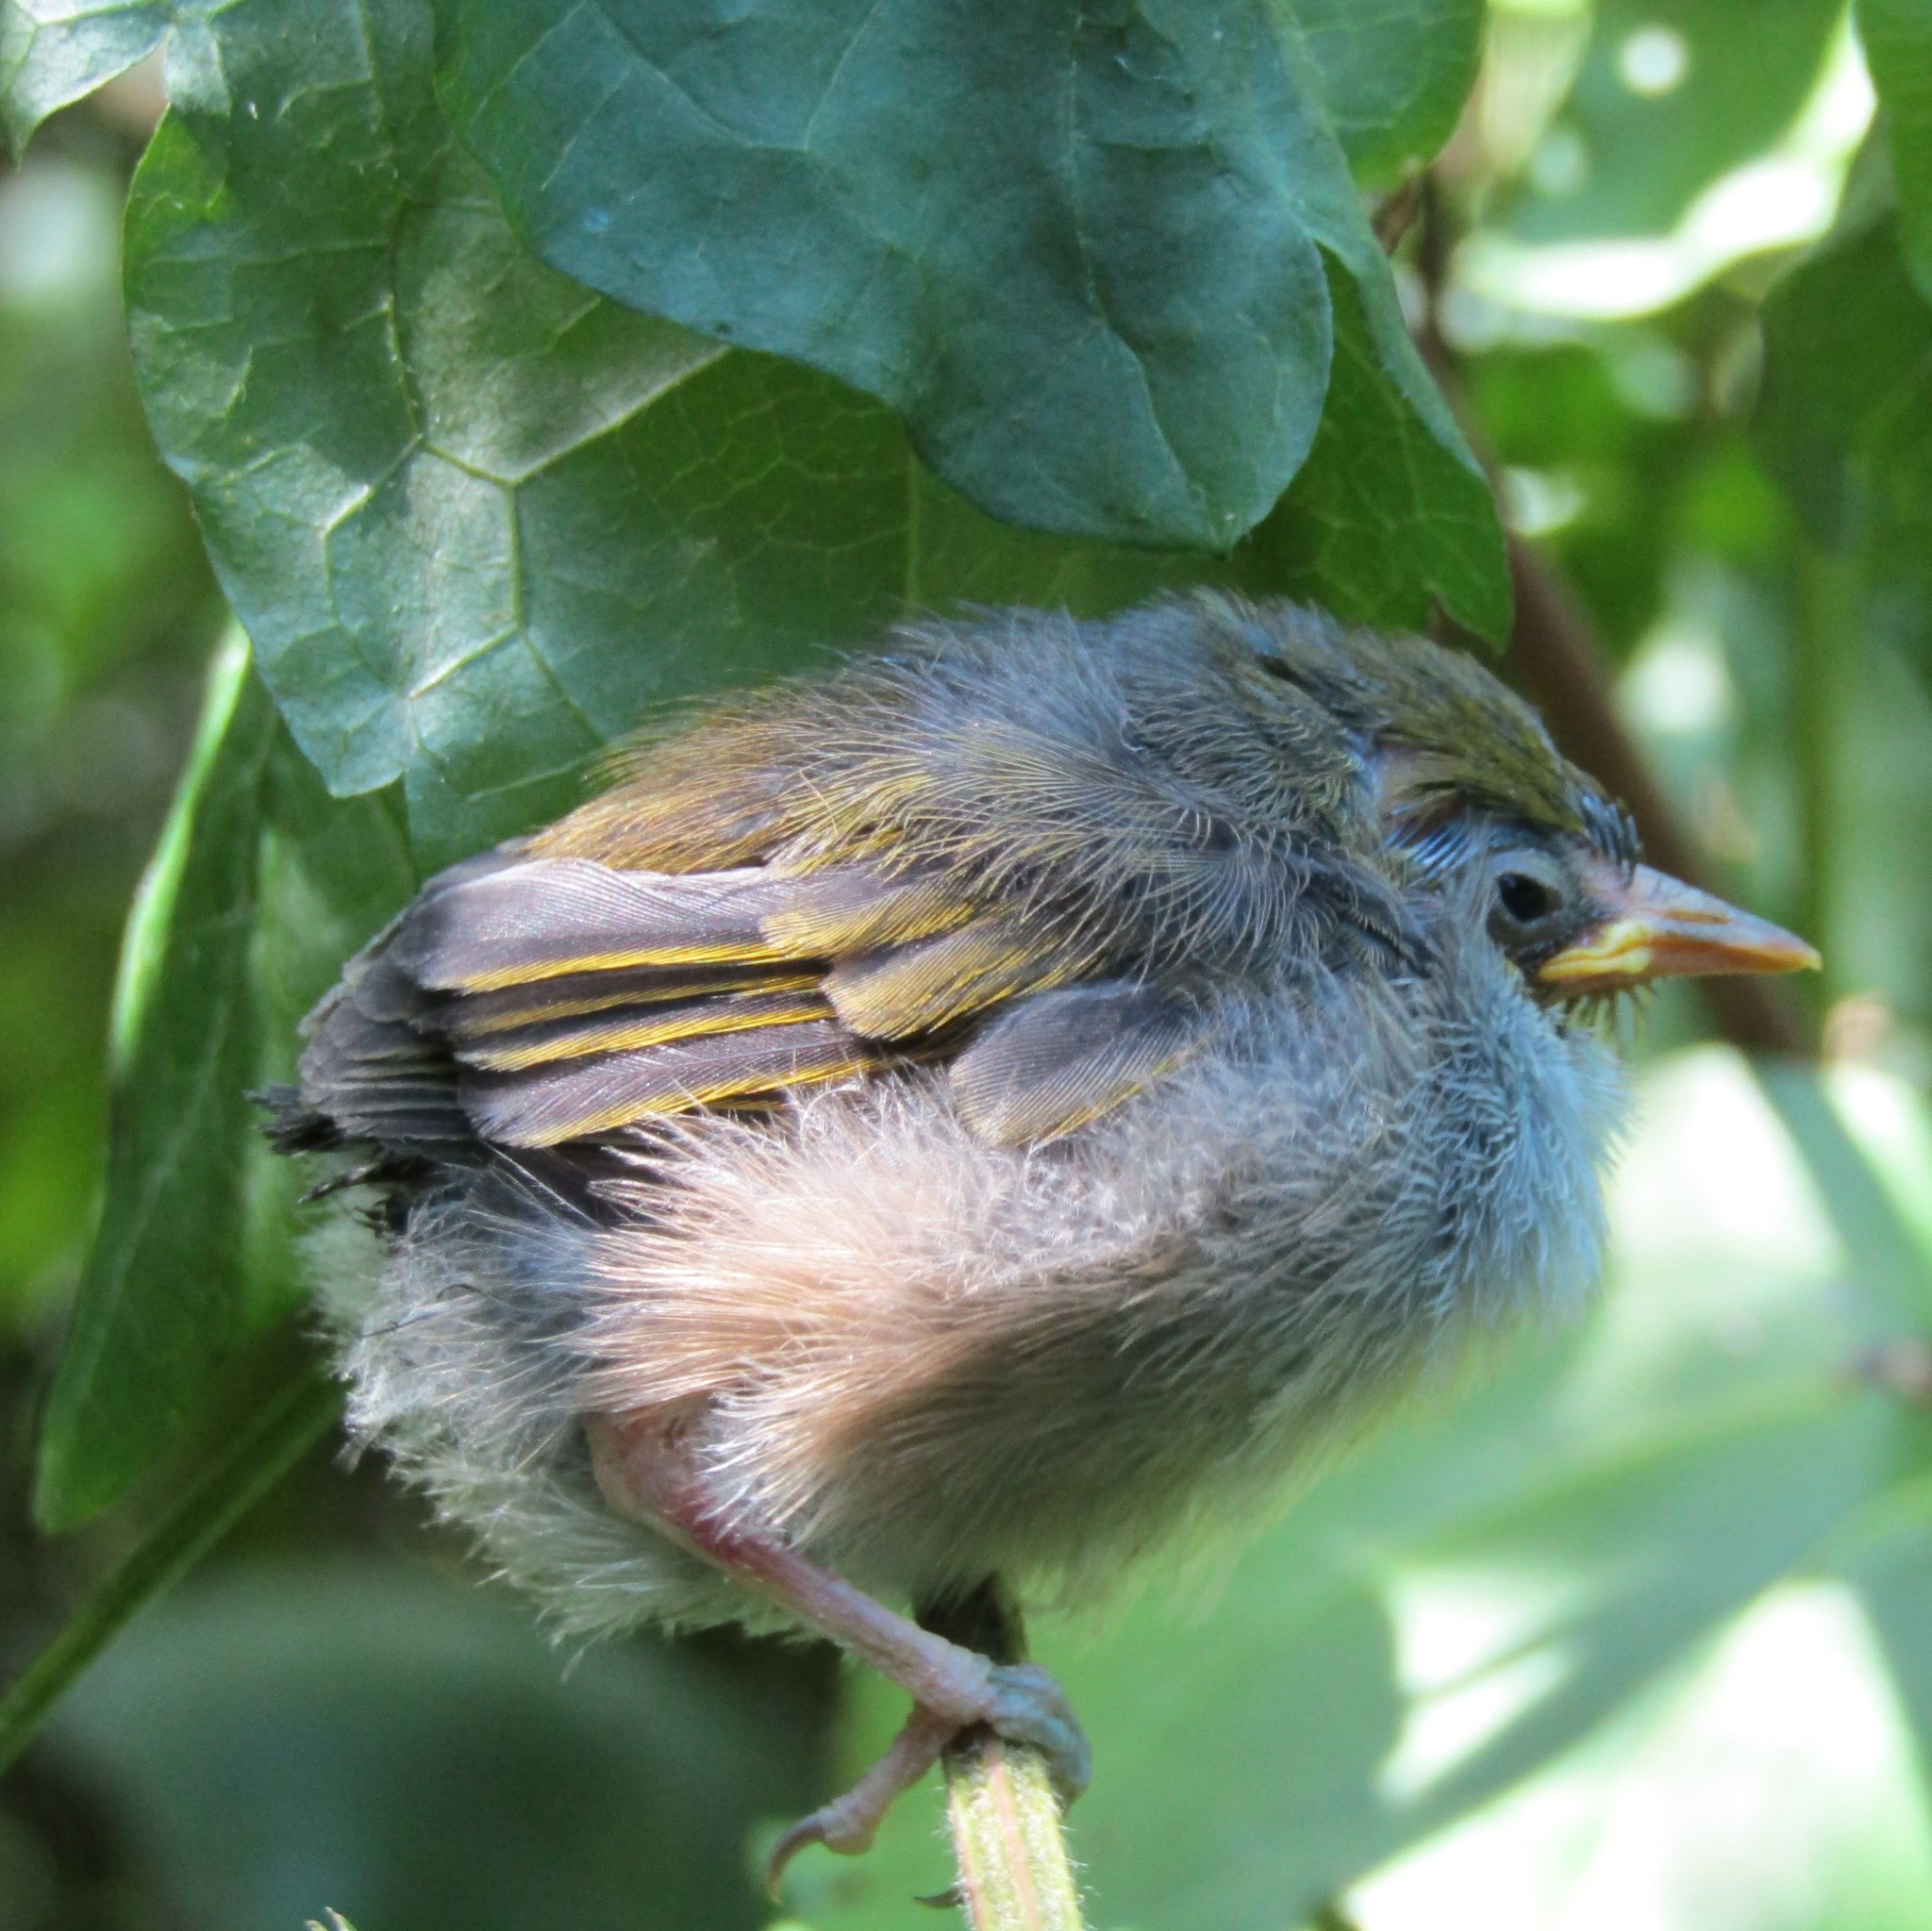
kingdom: Animalia
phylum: Chordata
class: Aves
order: Passeriformes
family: Zosteropidae
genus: Zosterops
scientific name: Zosterops lateralis
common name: Silvereye
